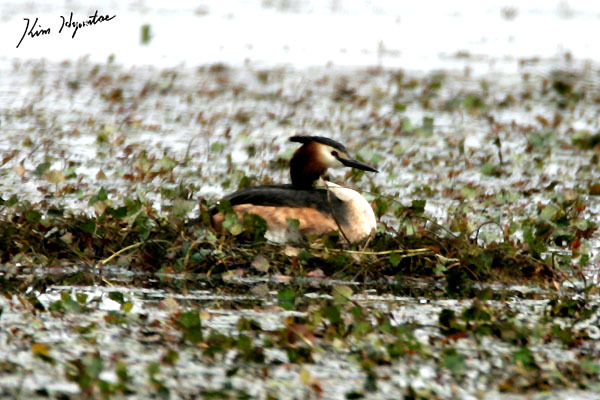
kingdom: Animalia
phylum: Chordata
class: Aves
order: Podicipediformes
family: Podicipedidae
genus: Podiceps
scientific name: Podiceps cristatus
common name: Great crested grebe
